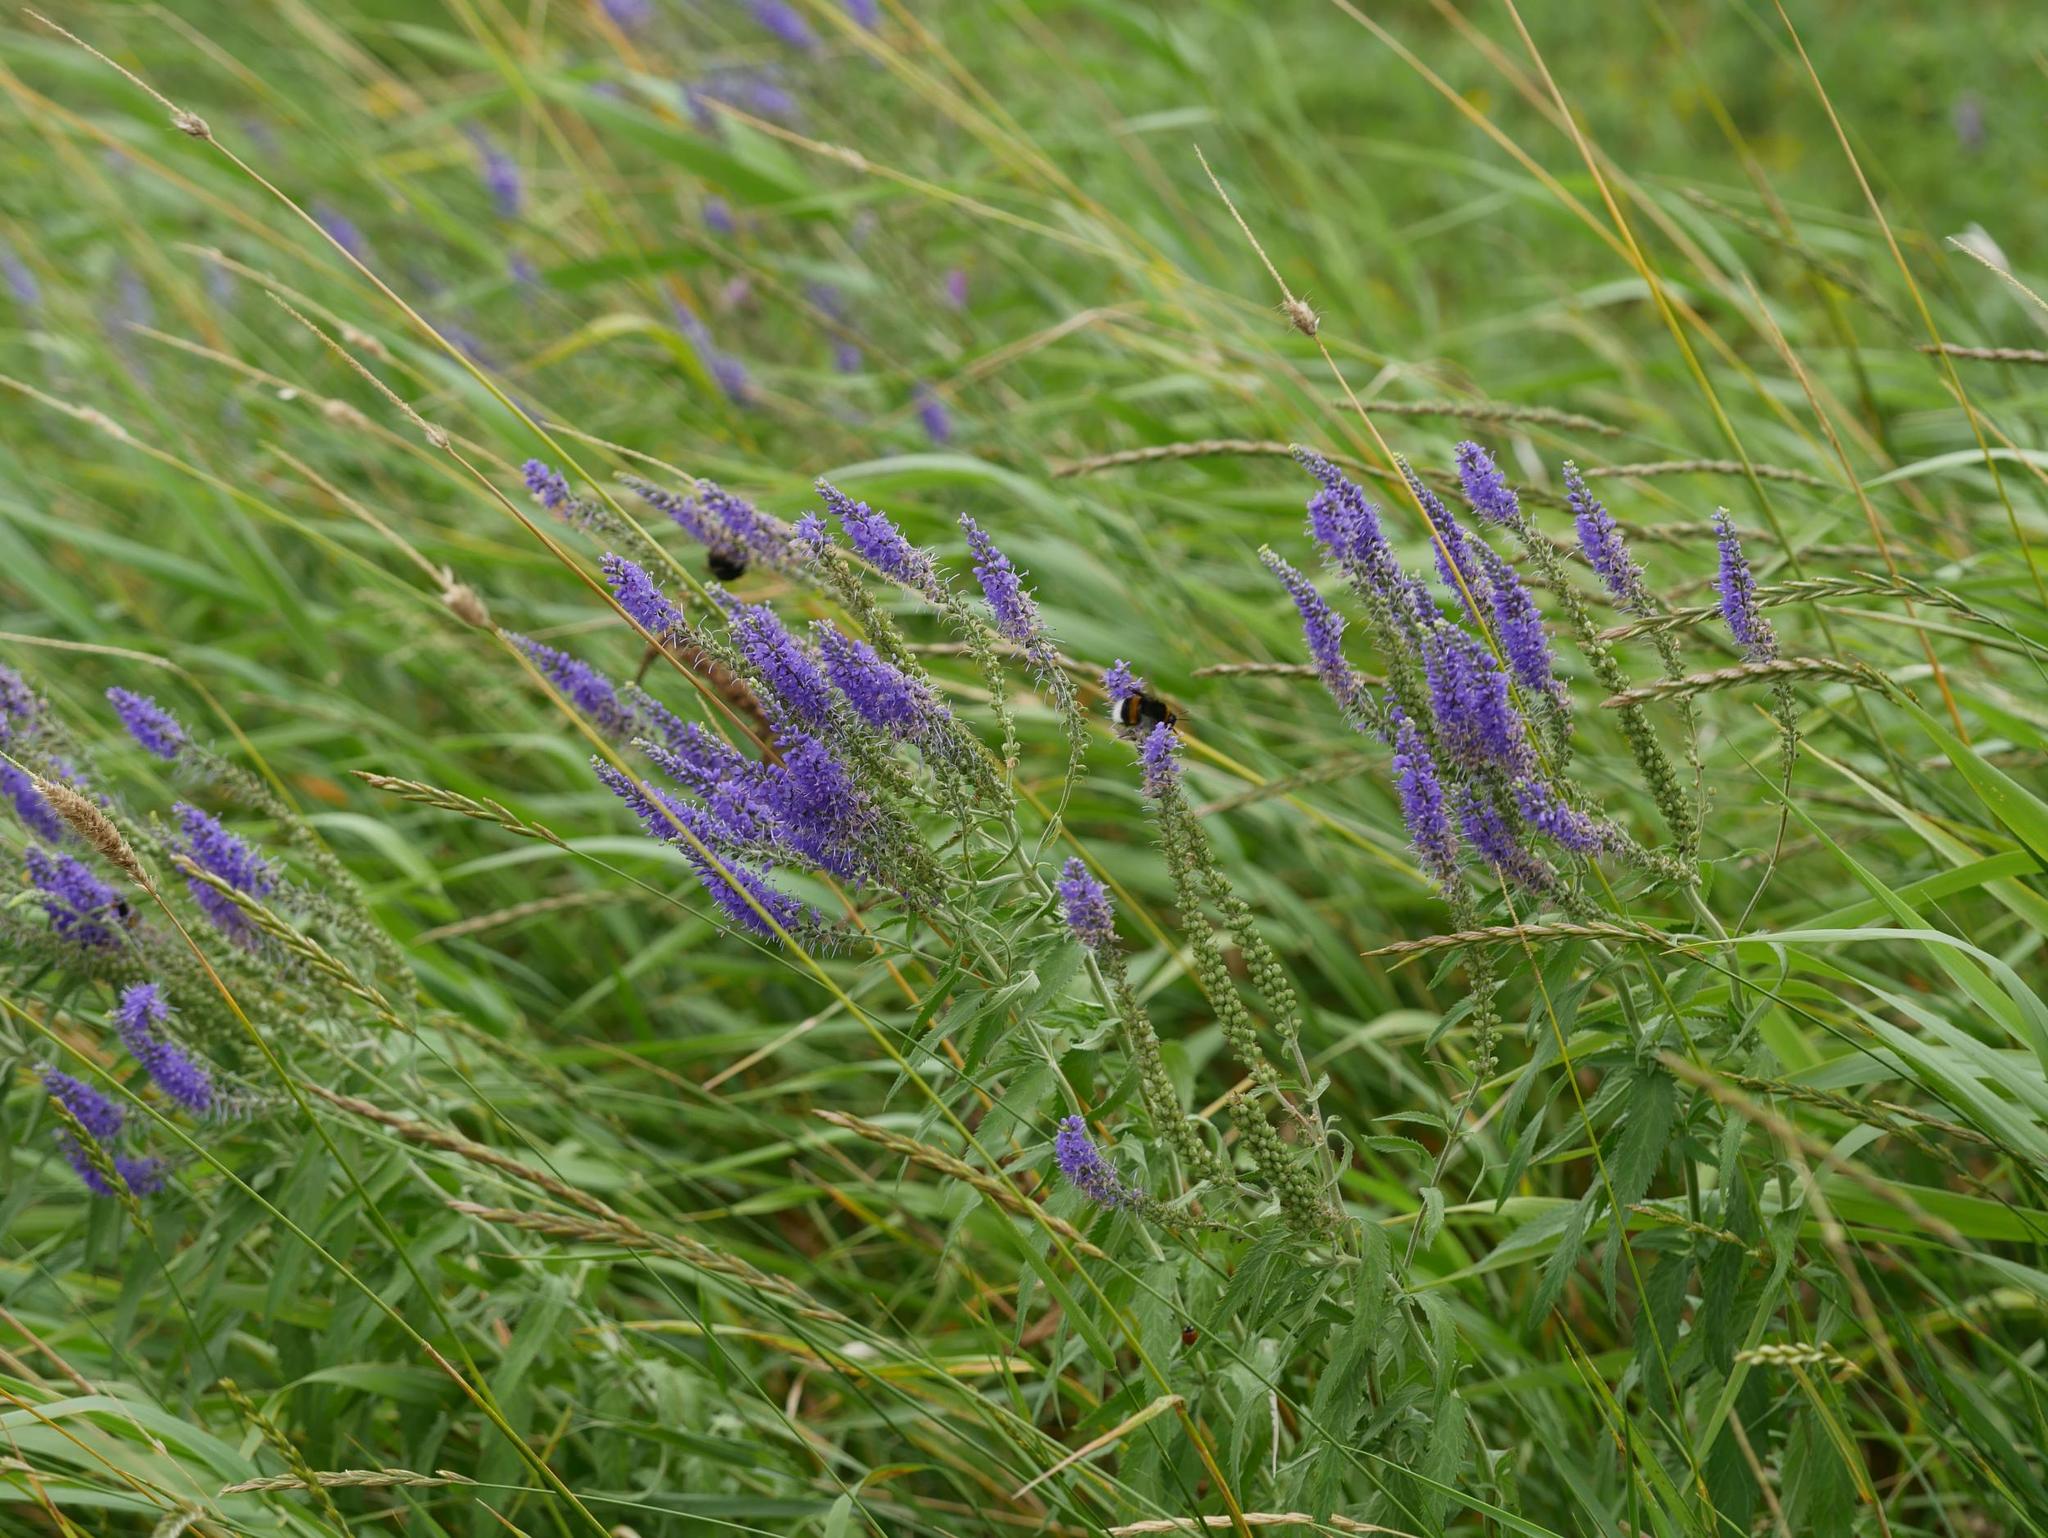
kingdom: Plantae
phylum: Tracheophyta
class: Magnoliopsida
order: Lamiales
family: Plantaginaceae
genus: Veronica
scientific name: Veronica longifolia
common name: Garden speedwell
